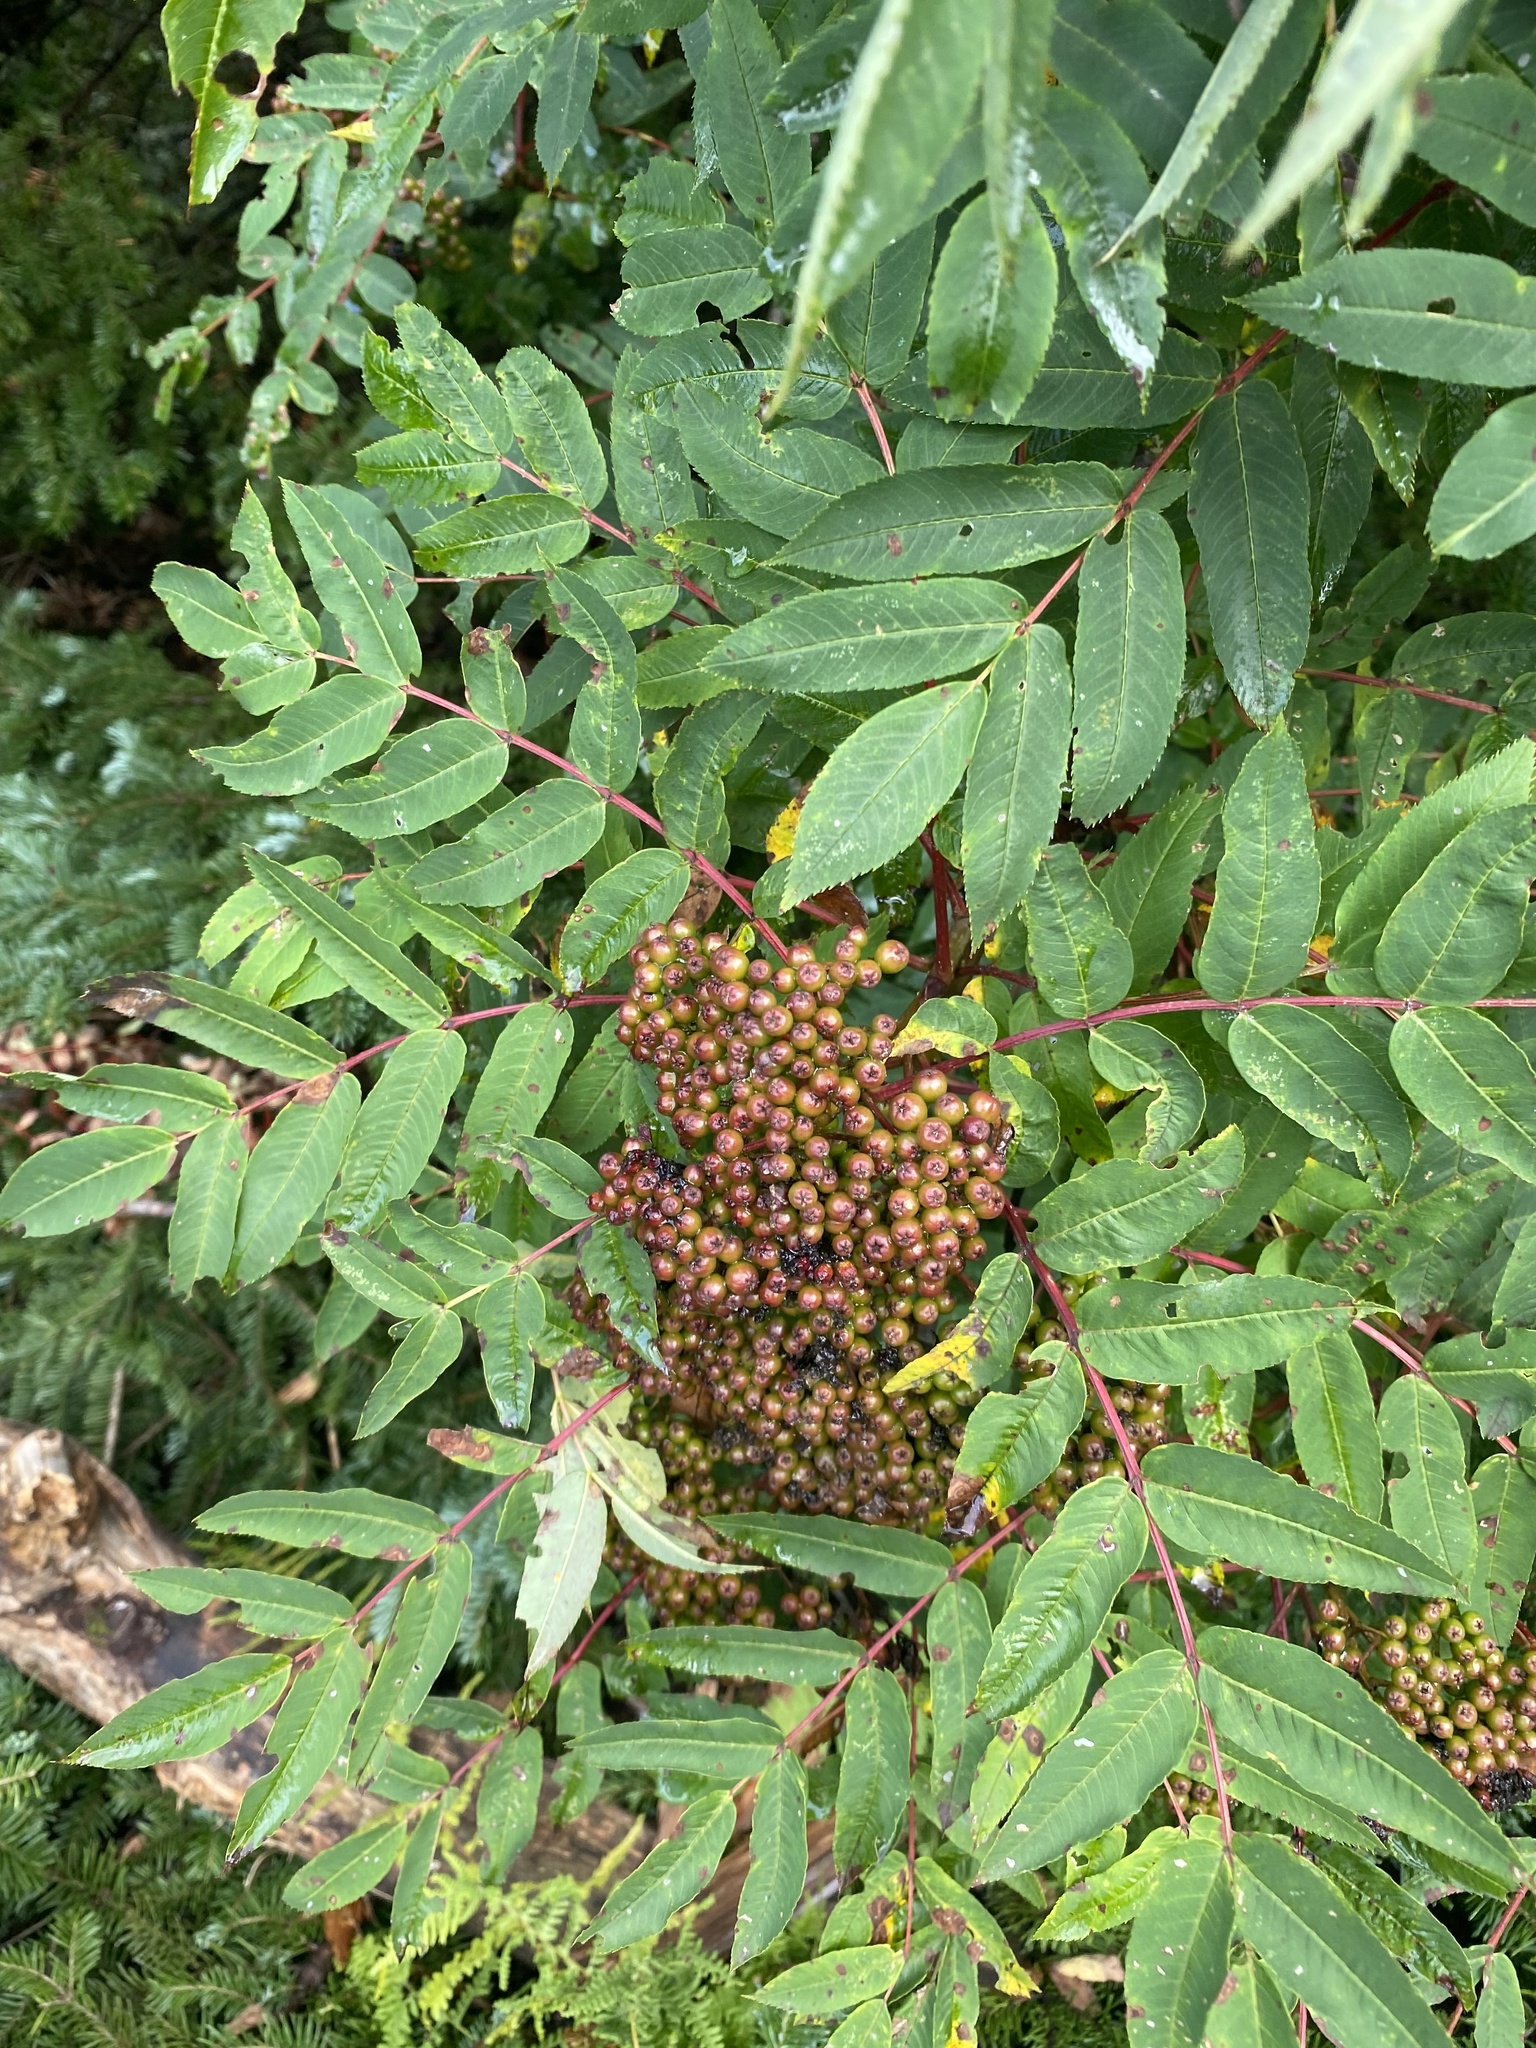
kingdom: Plantae
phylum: Tracheophyta
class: Magnoliopsida
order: Rosales
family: Rosaceae
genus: Sorbus
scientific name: Sorbus americana
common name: American mountain-ash
